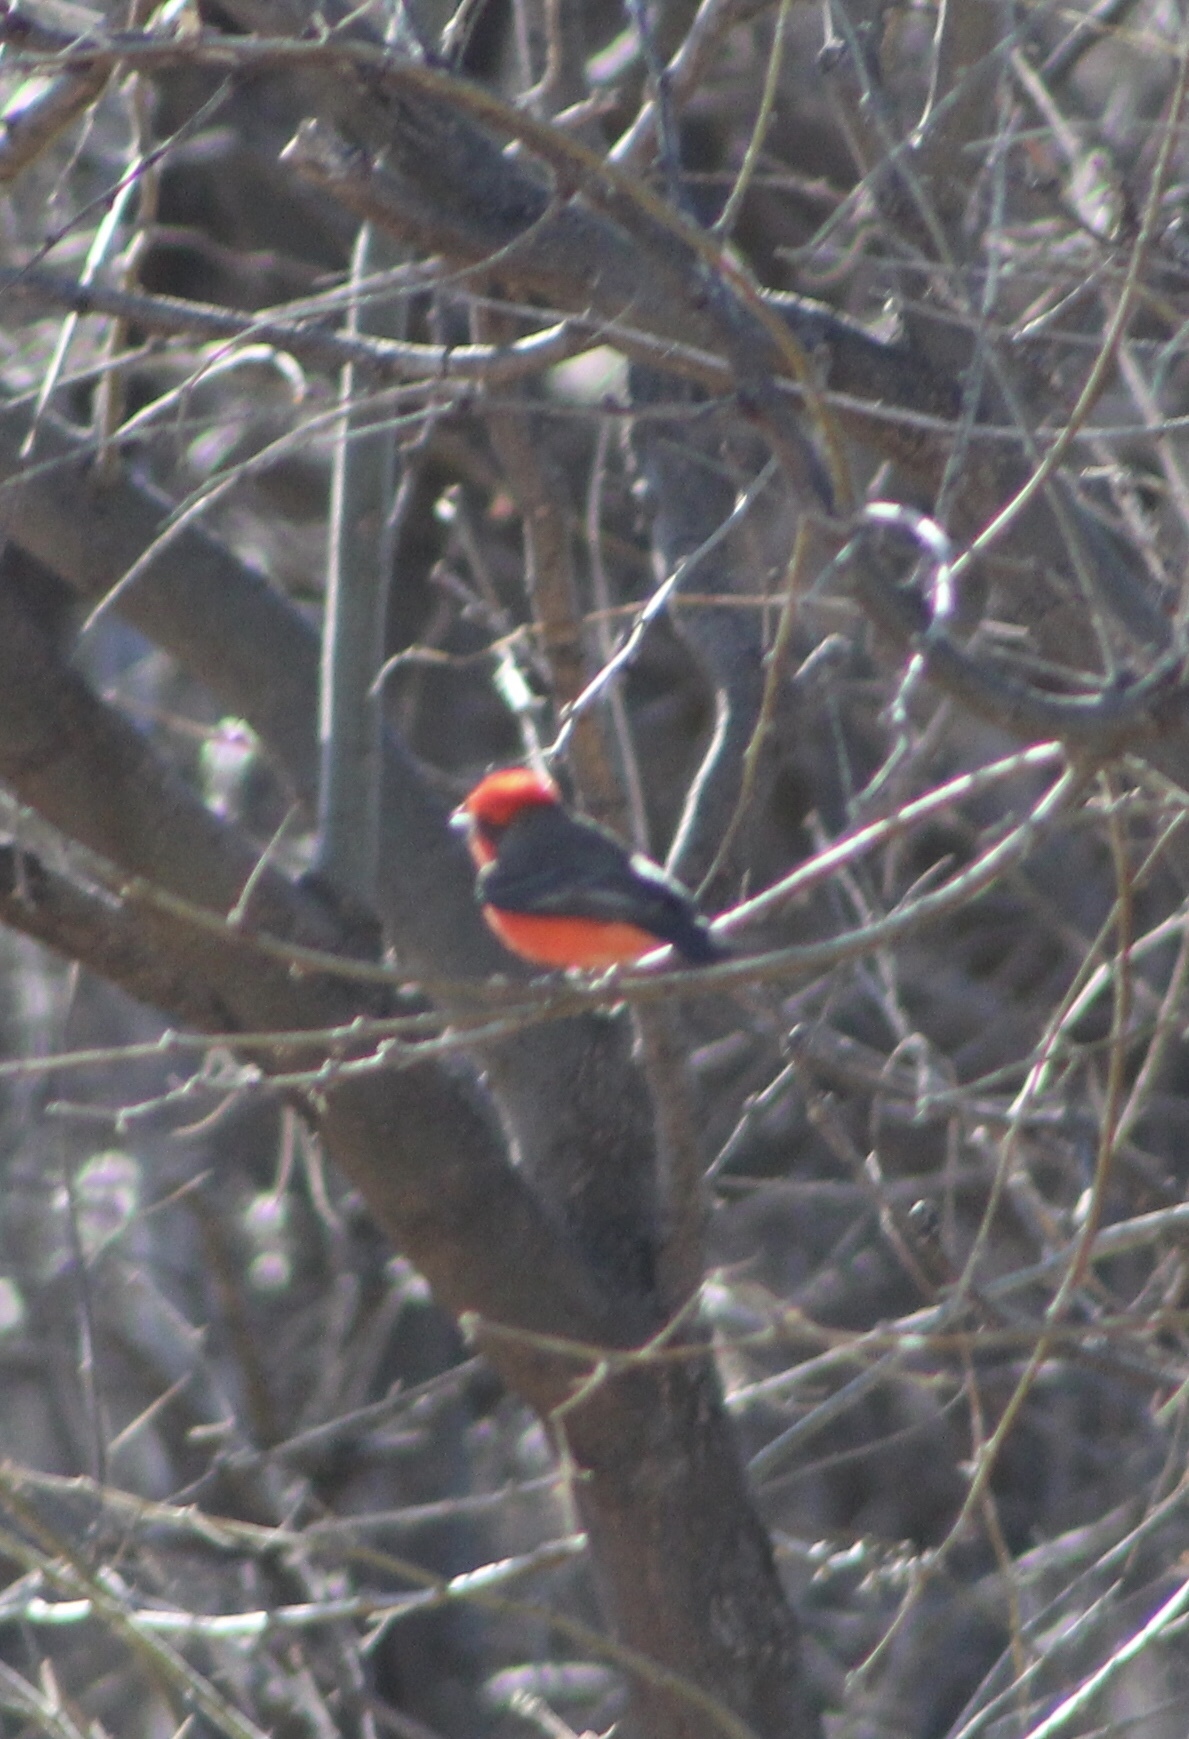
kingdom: Animalia
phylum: Chordata
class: Aves
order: Passeriformes
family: Tyrannidae
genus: Pyrocephalus
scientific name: Pyrocephalus rubinus
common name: Vermilion flycatcher
